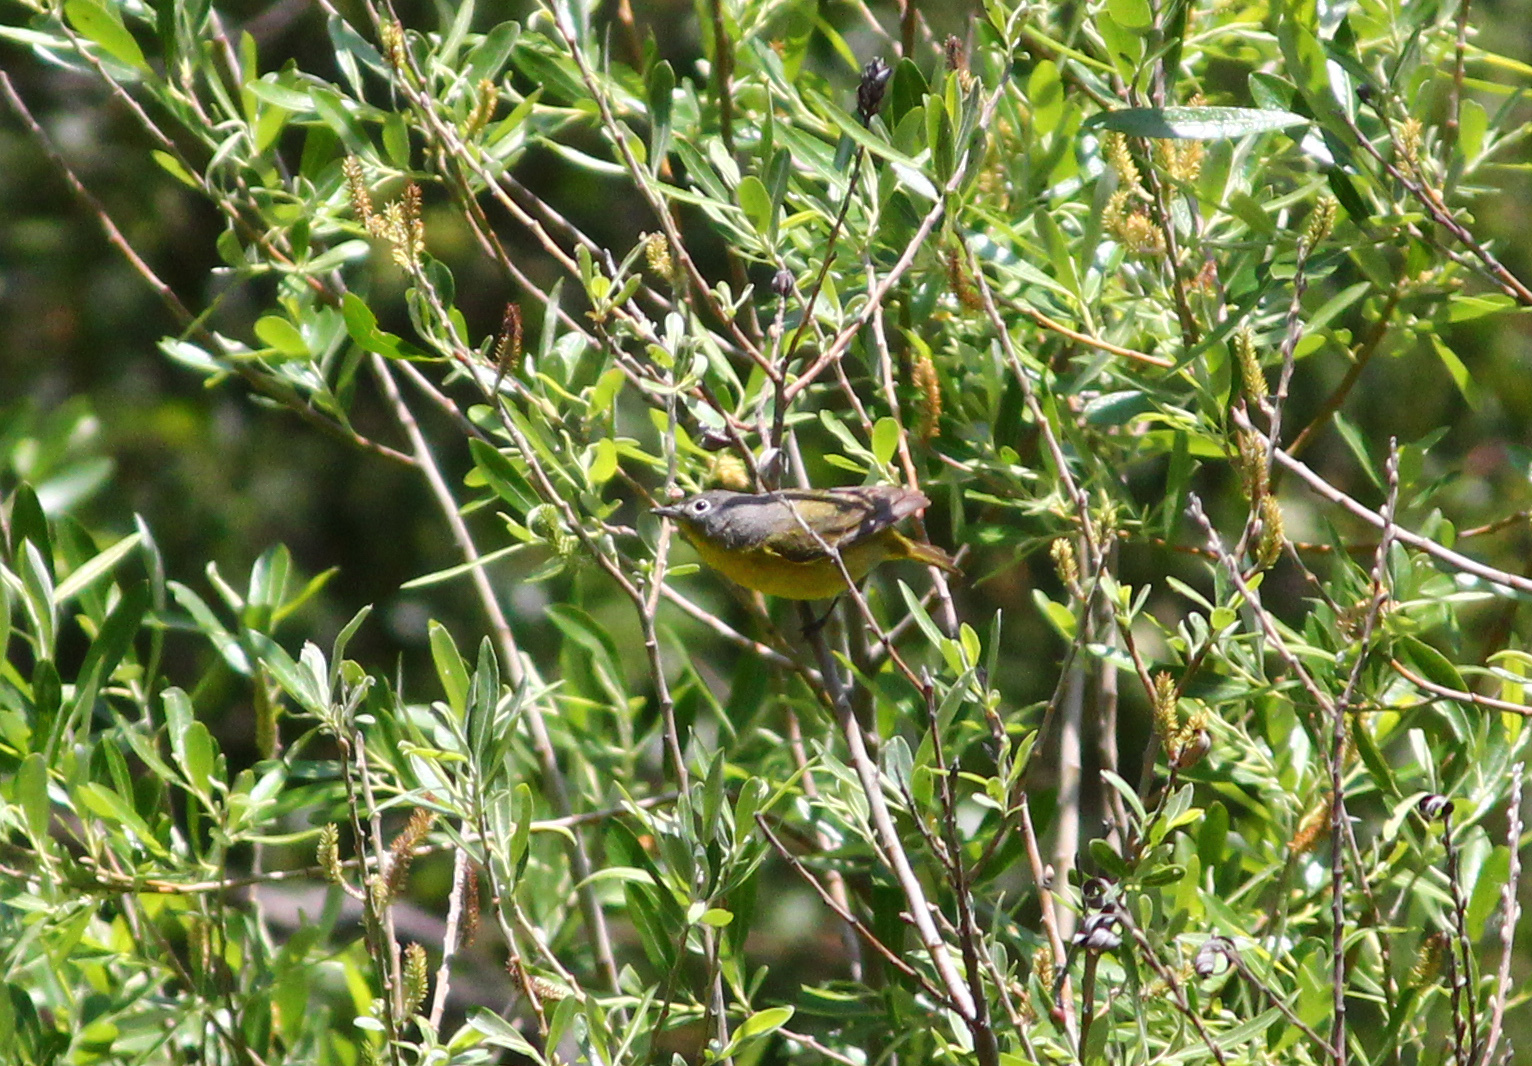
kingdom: Animalia
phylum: Chordata
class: Aves
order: Passeriformes
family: Parulidae
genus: Leiothlypis
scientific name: Leiothlypis ruficapilla
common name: Nashville warbler
